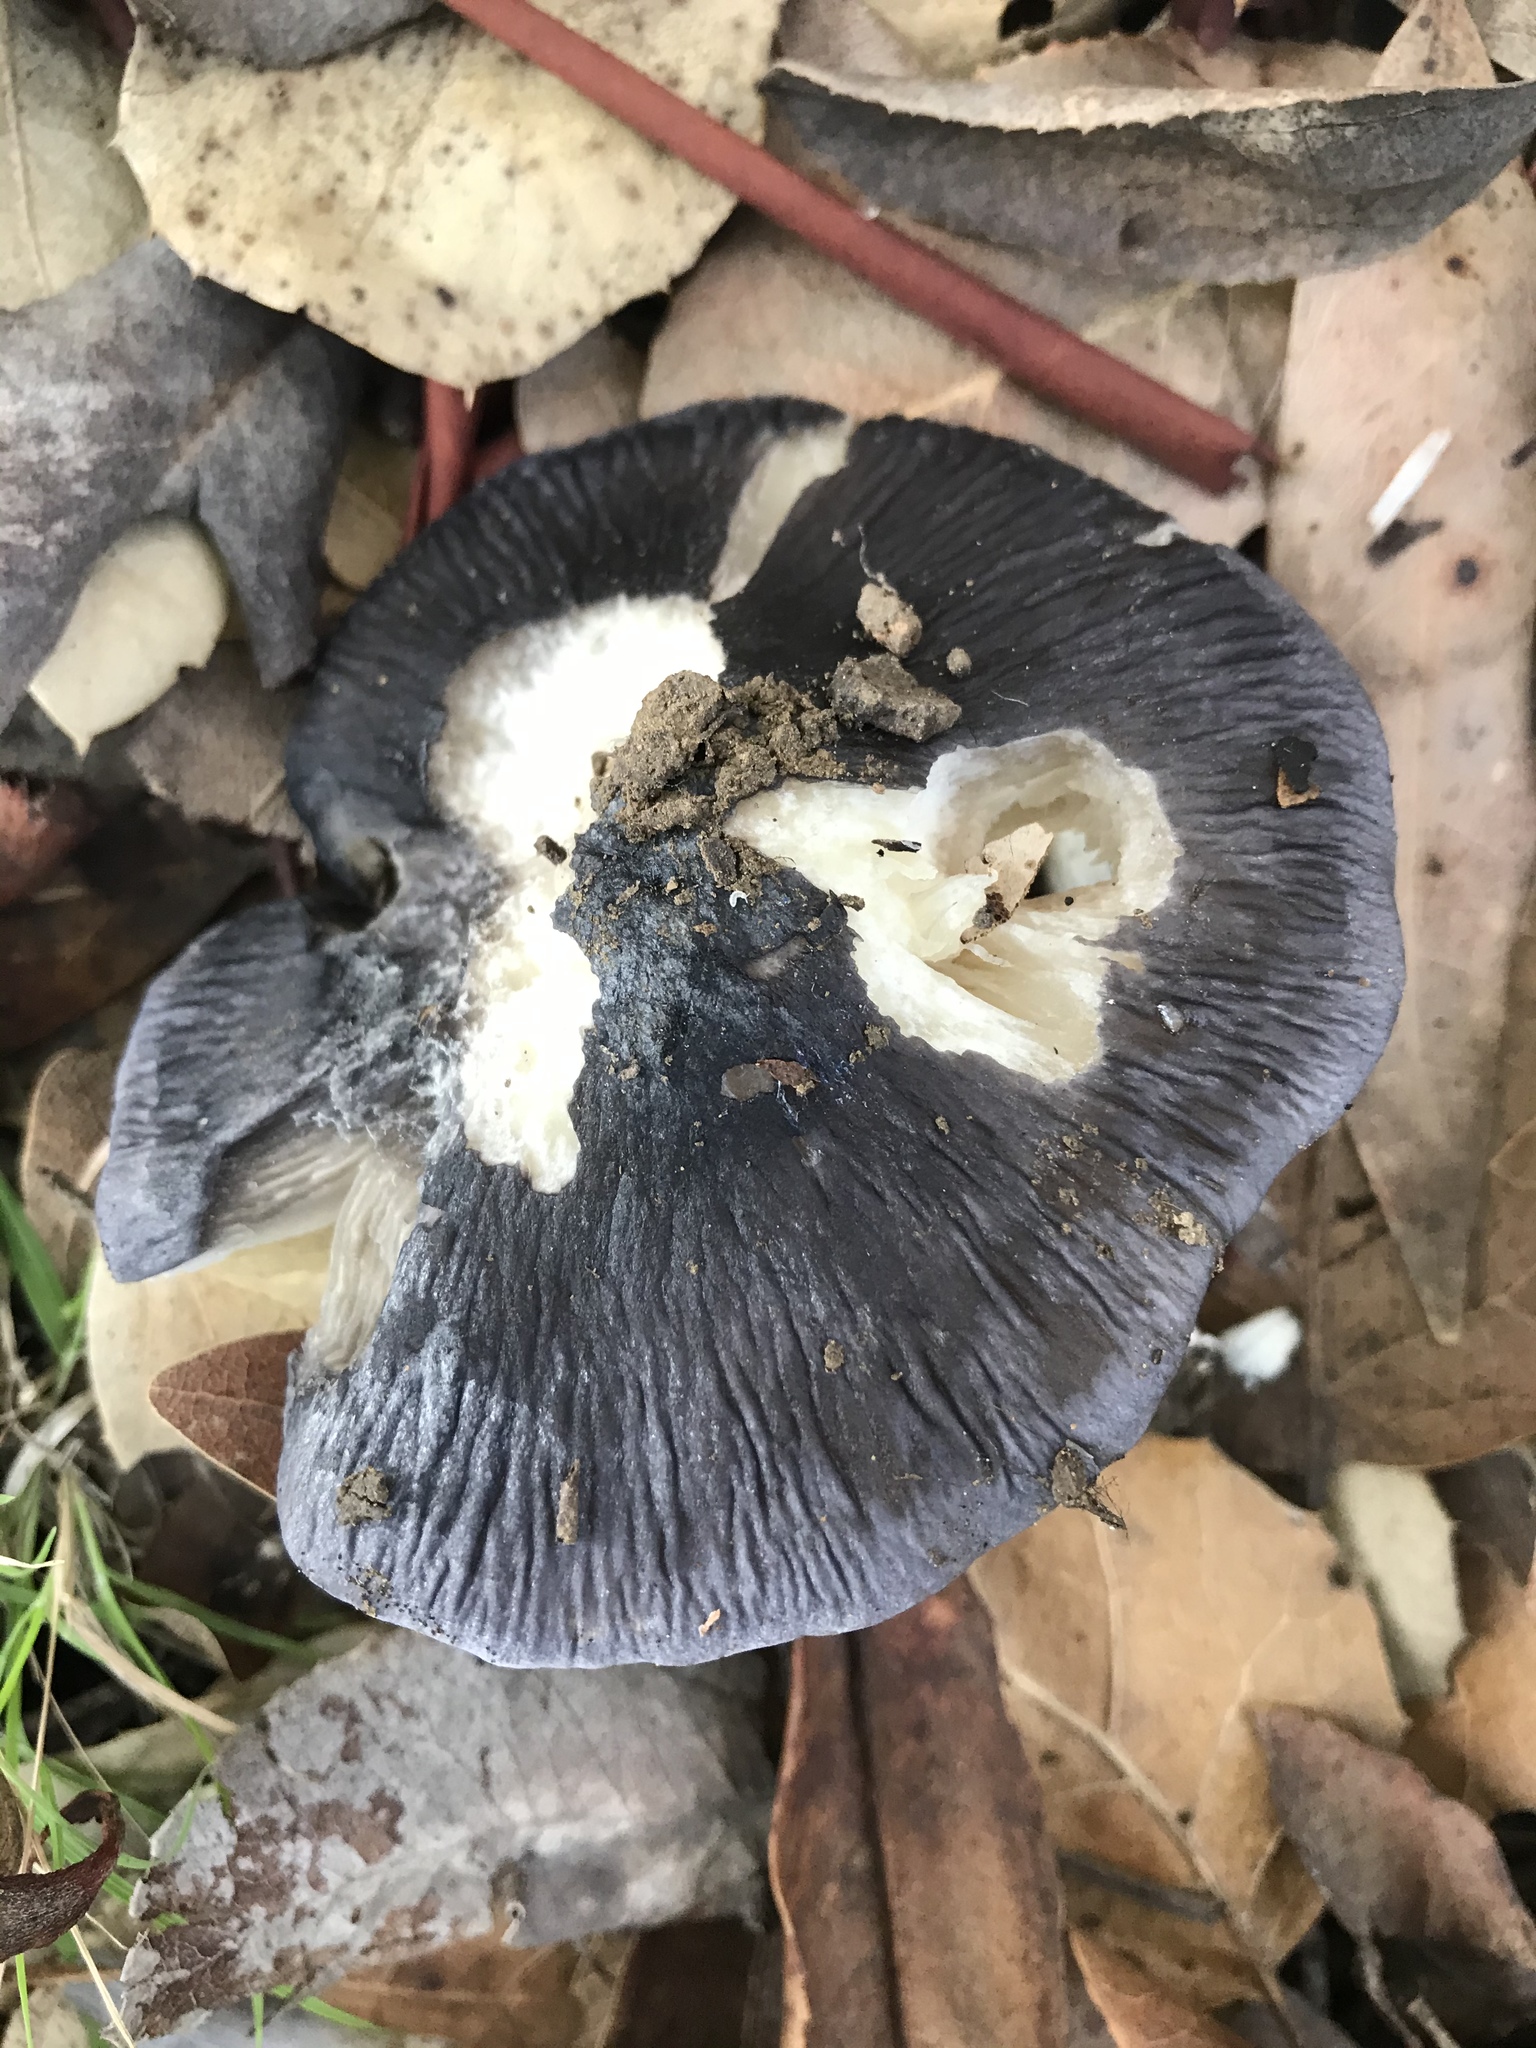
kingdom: Fungi
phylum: Basidiomycota
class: Agaricomycetes
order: Agaricales
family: Entolomataceae
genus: Entoloma
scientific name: Entoloma medianox
